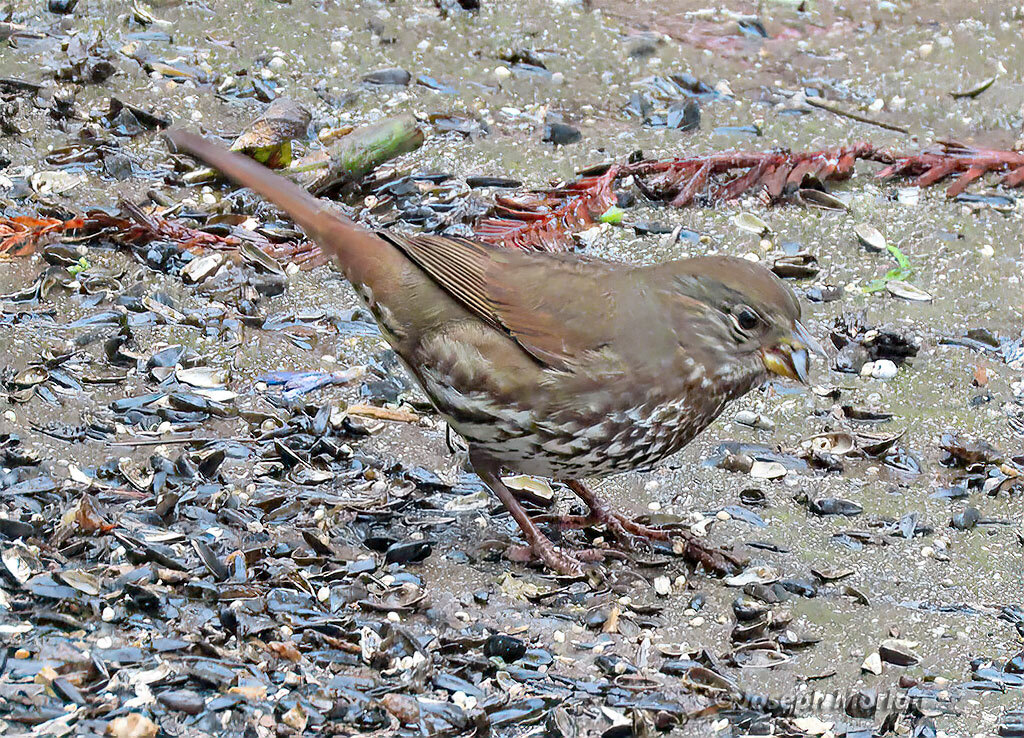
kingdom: Animalia
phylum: Chordata
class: Aves
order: Passeriformes
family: Passerellidae
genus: Passerella
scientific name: Passerella iliaca
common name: Fox sparrow
